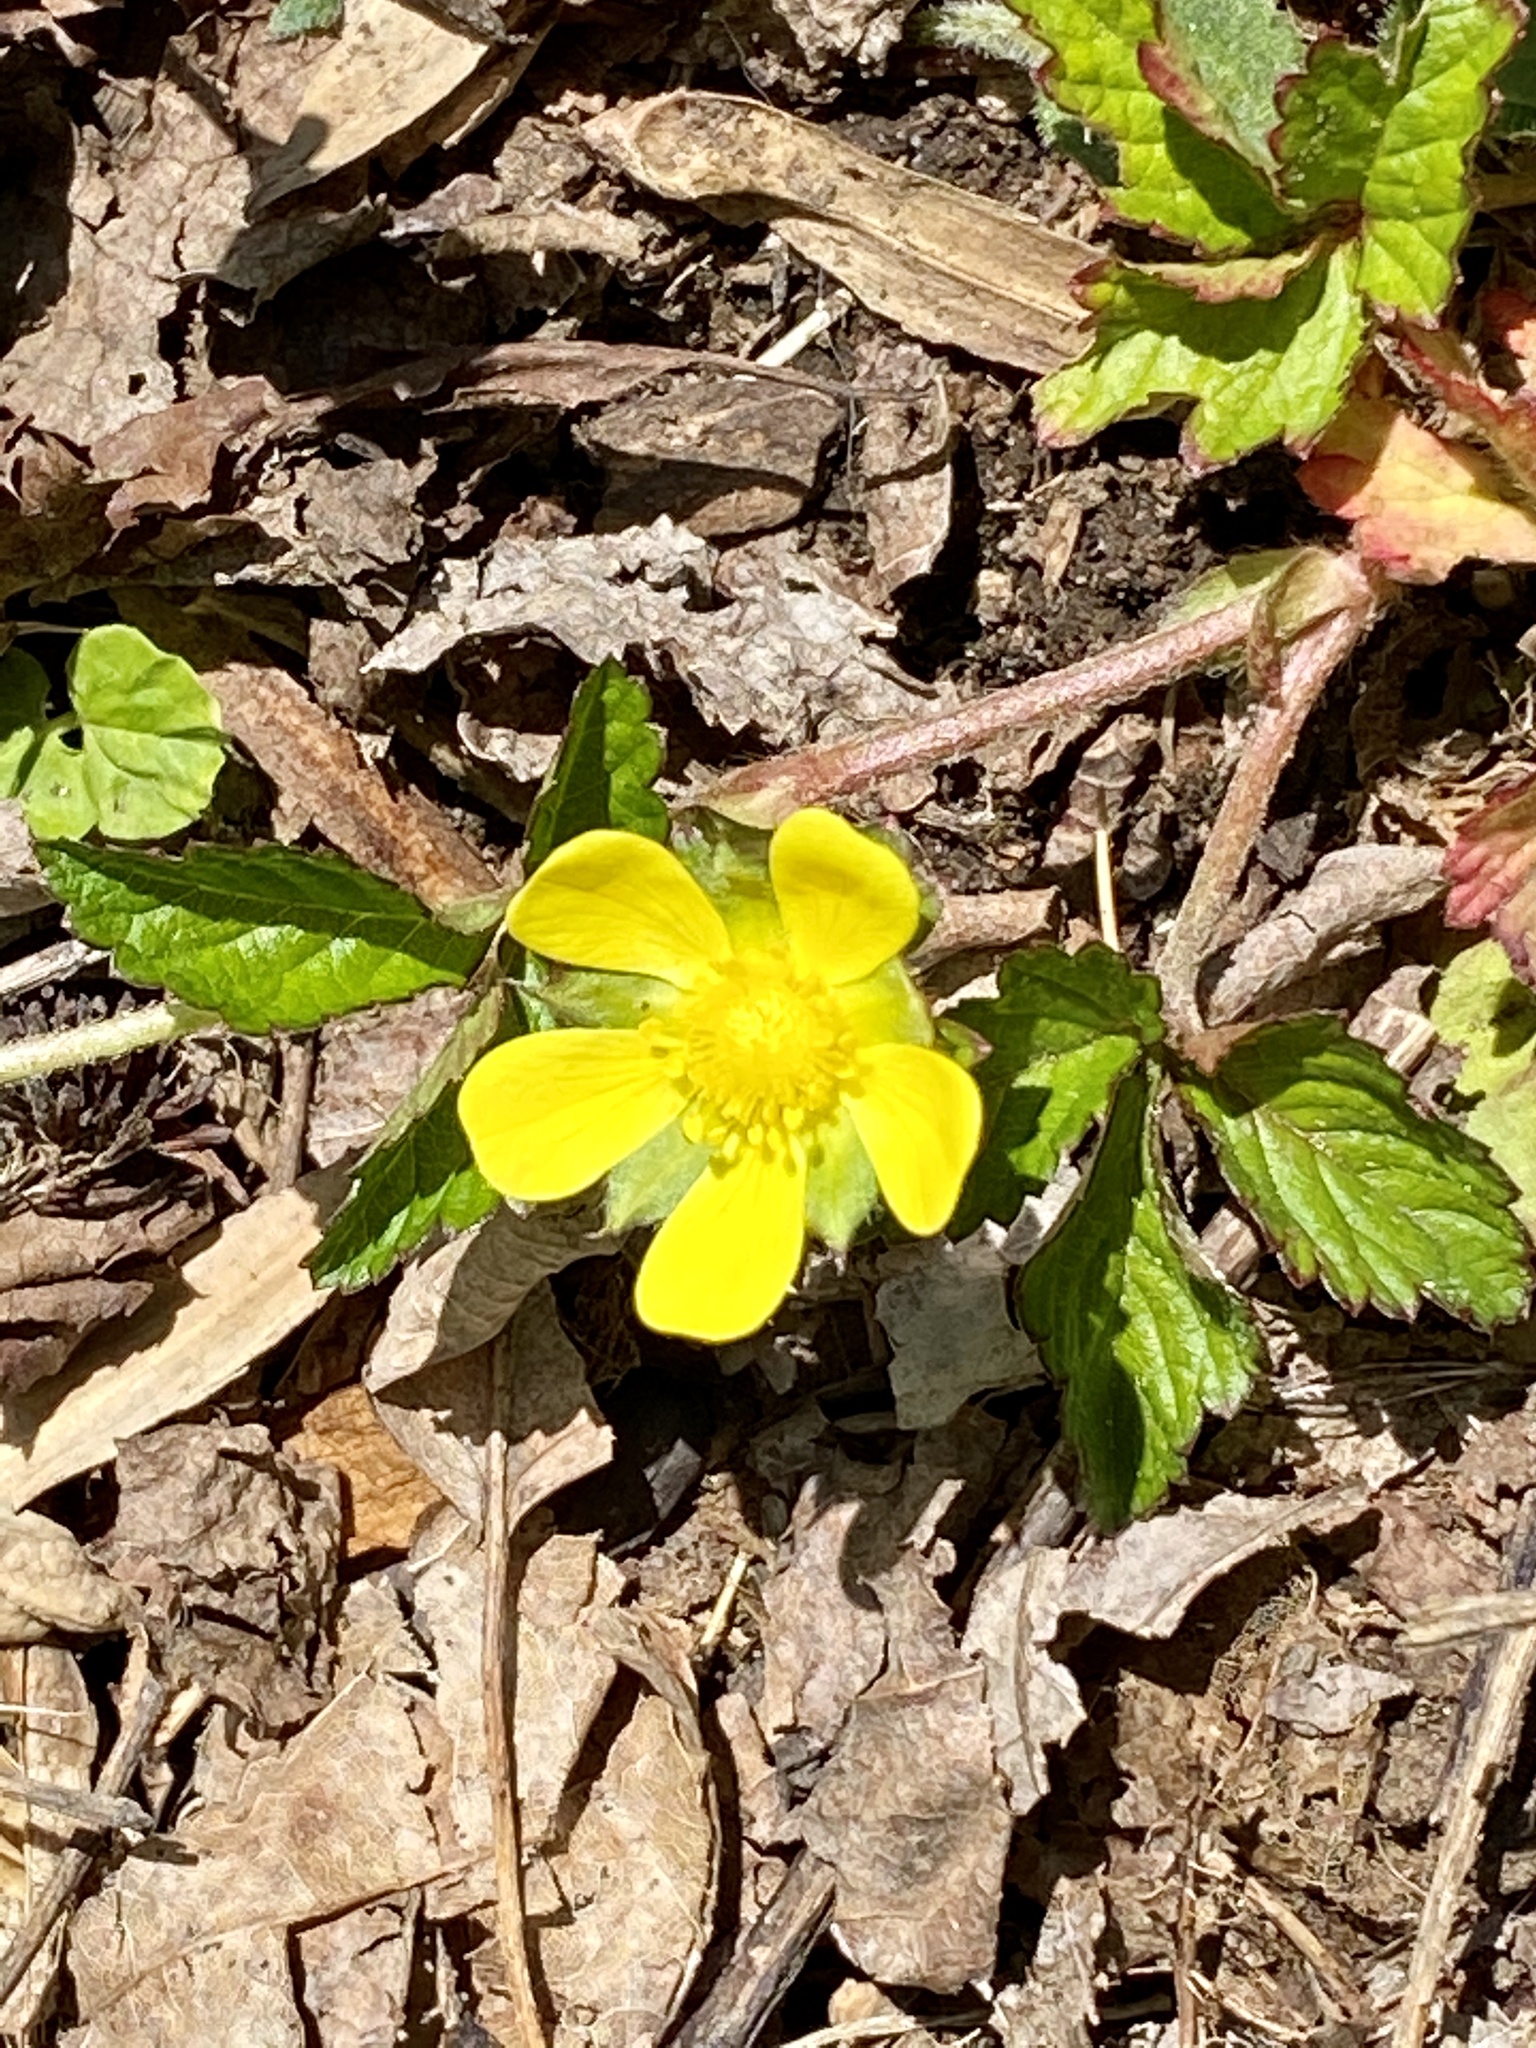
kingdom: Plantae
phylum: Tracheophyta
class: Magnoliopsida
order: Rosales
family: Rosaceae
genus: Potentilla
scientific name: Potentilla indica
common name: Yellow-flowered strawberry
